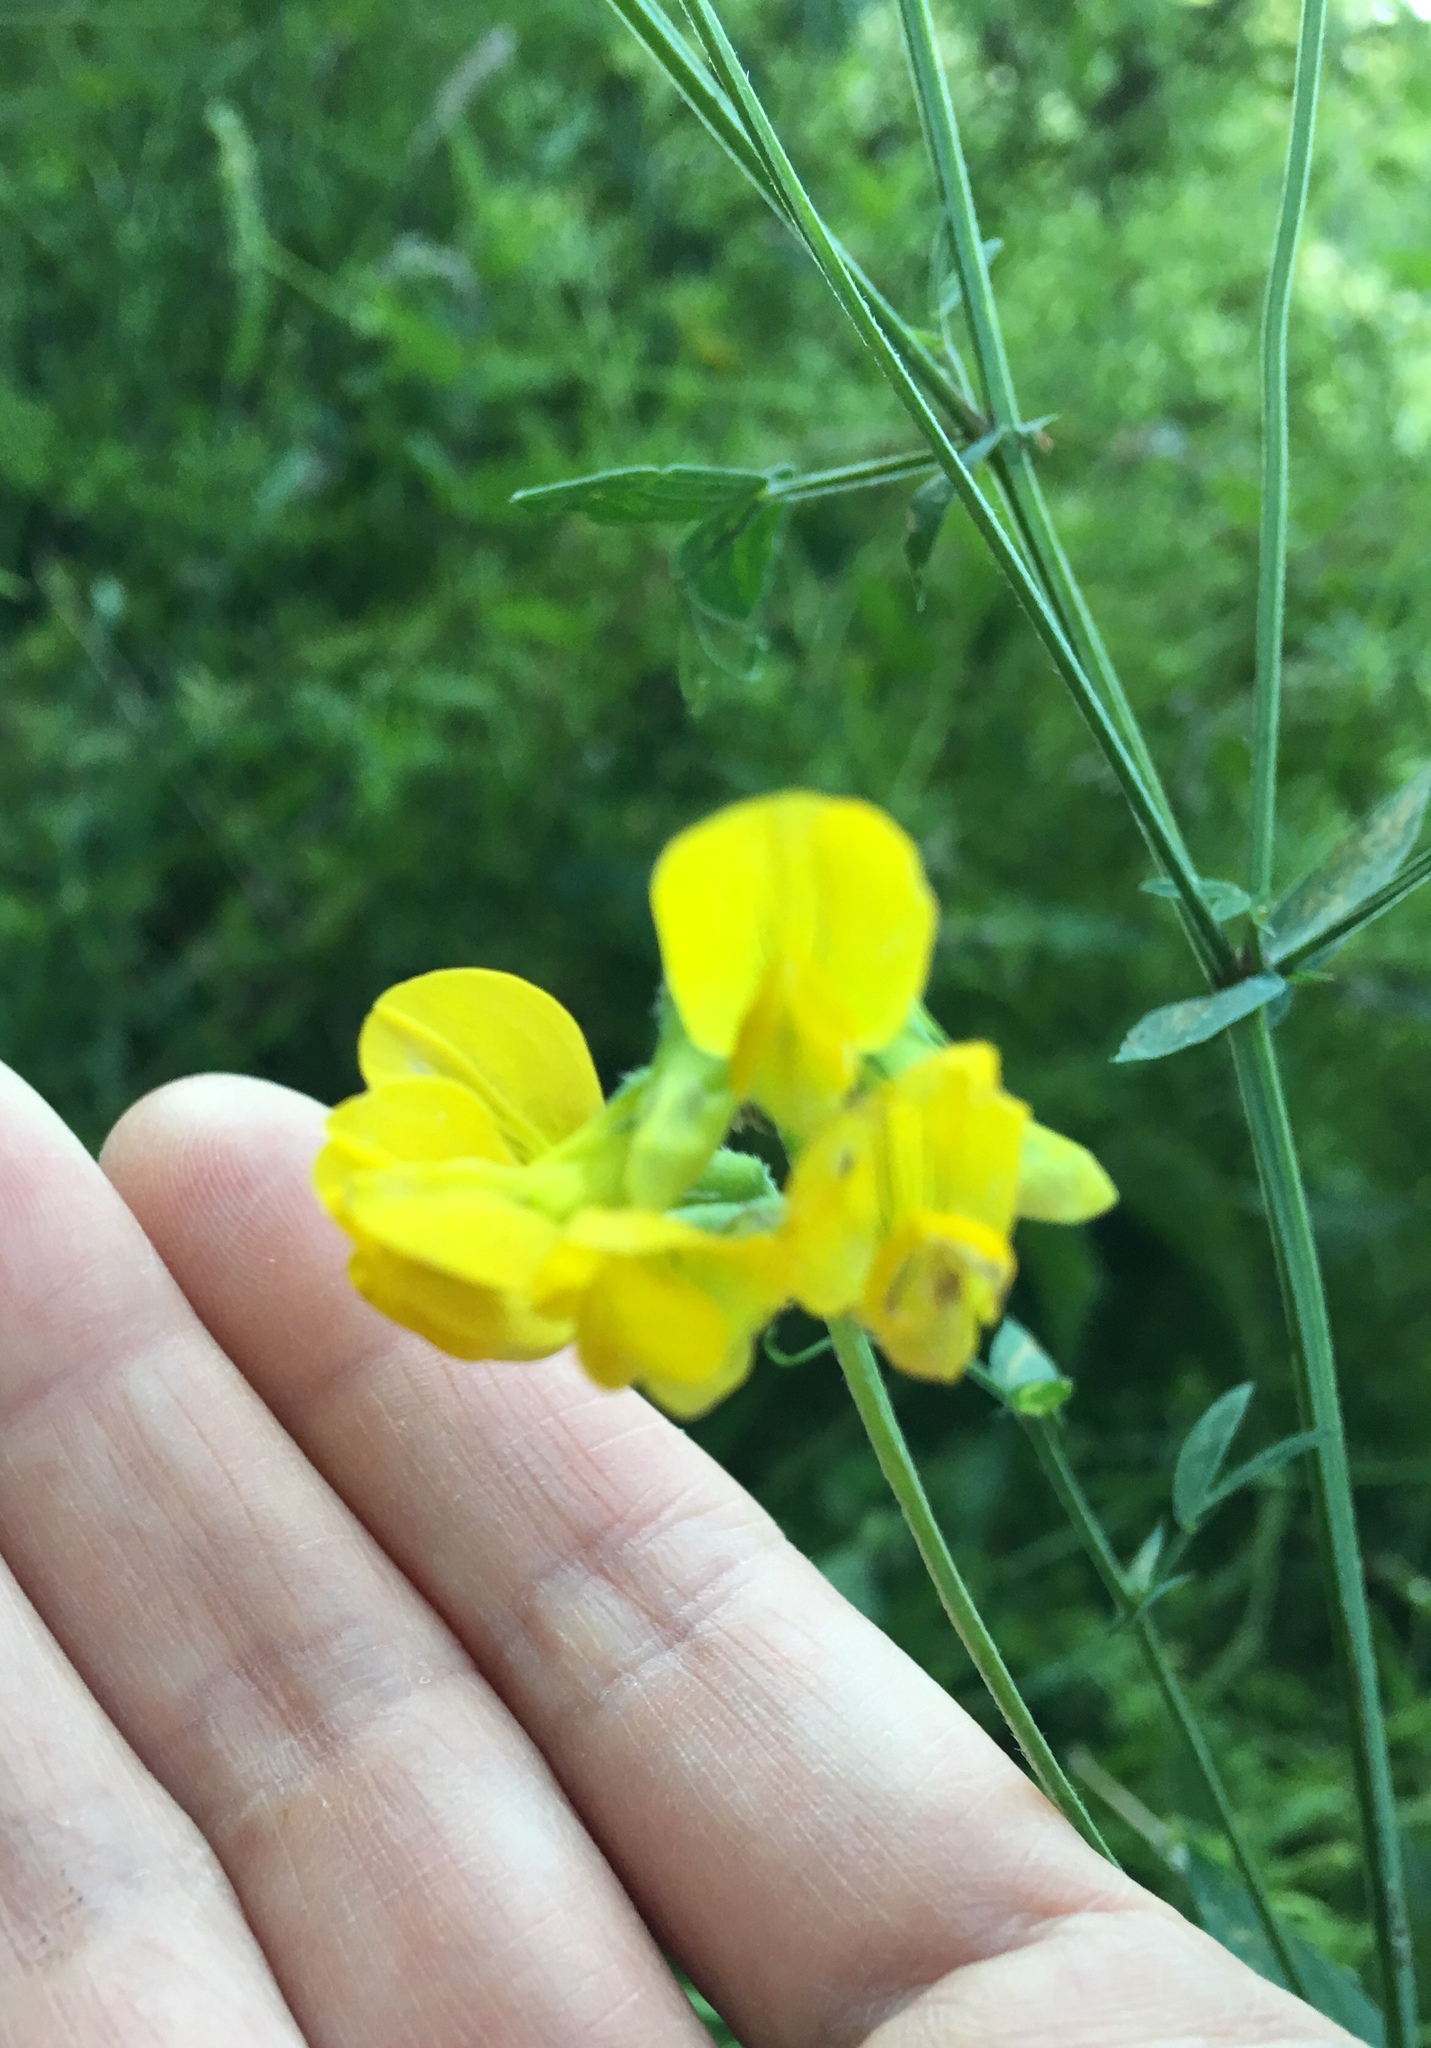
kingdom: Plantae
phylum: Tracheophyta
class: Magnoliopsida
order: Fabales
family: Fabaceae
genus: Lathyrus
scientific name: Lathyrus pratensis
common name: Meadow vetchling
